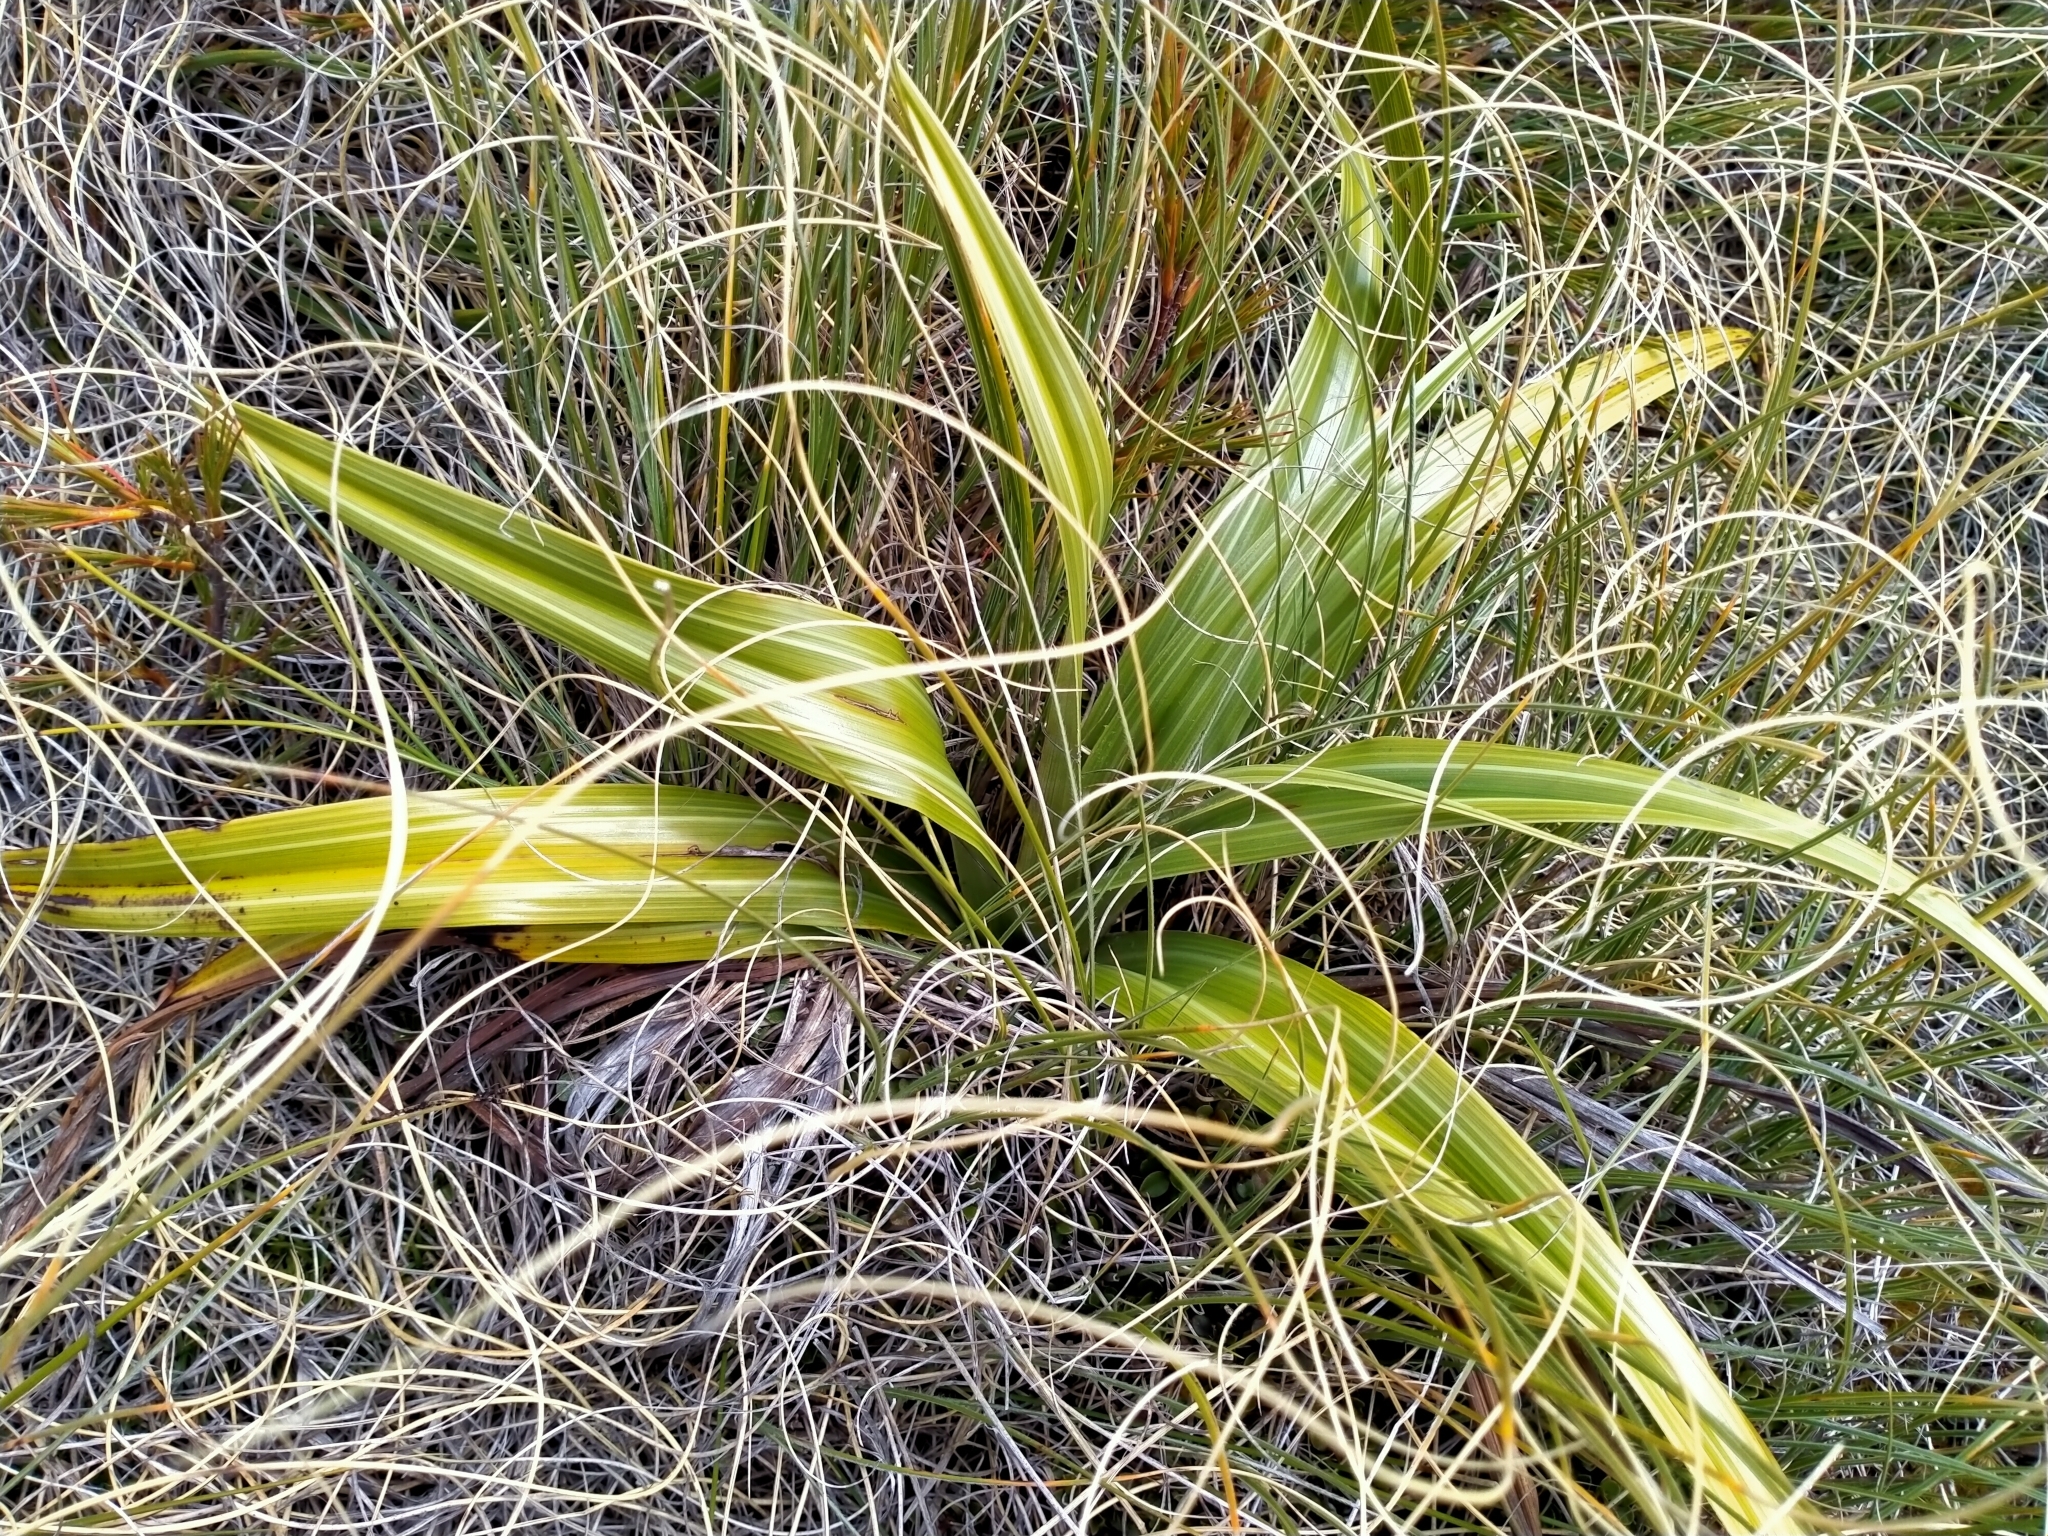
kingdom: Plantae
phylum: Tracheophyta
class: Liliopsida
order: Asparagales
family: Asteliaceae
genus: Astelia
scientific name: Astelia petriei
